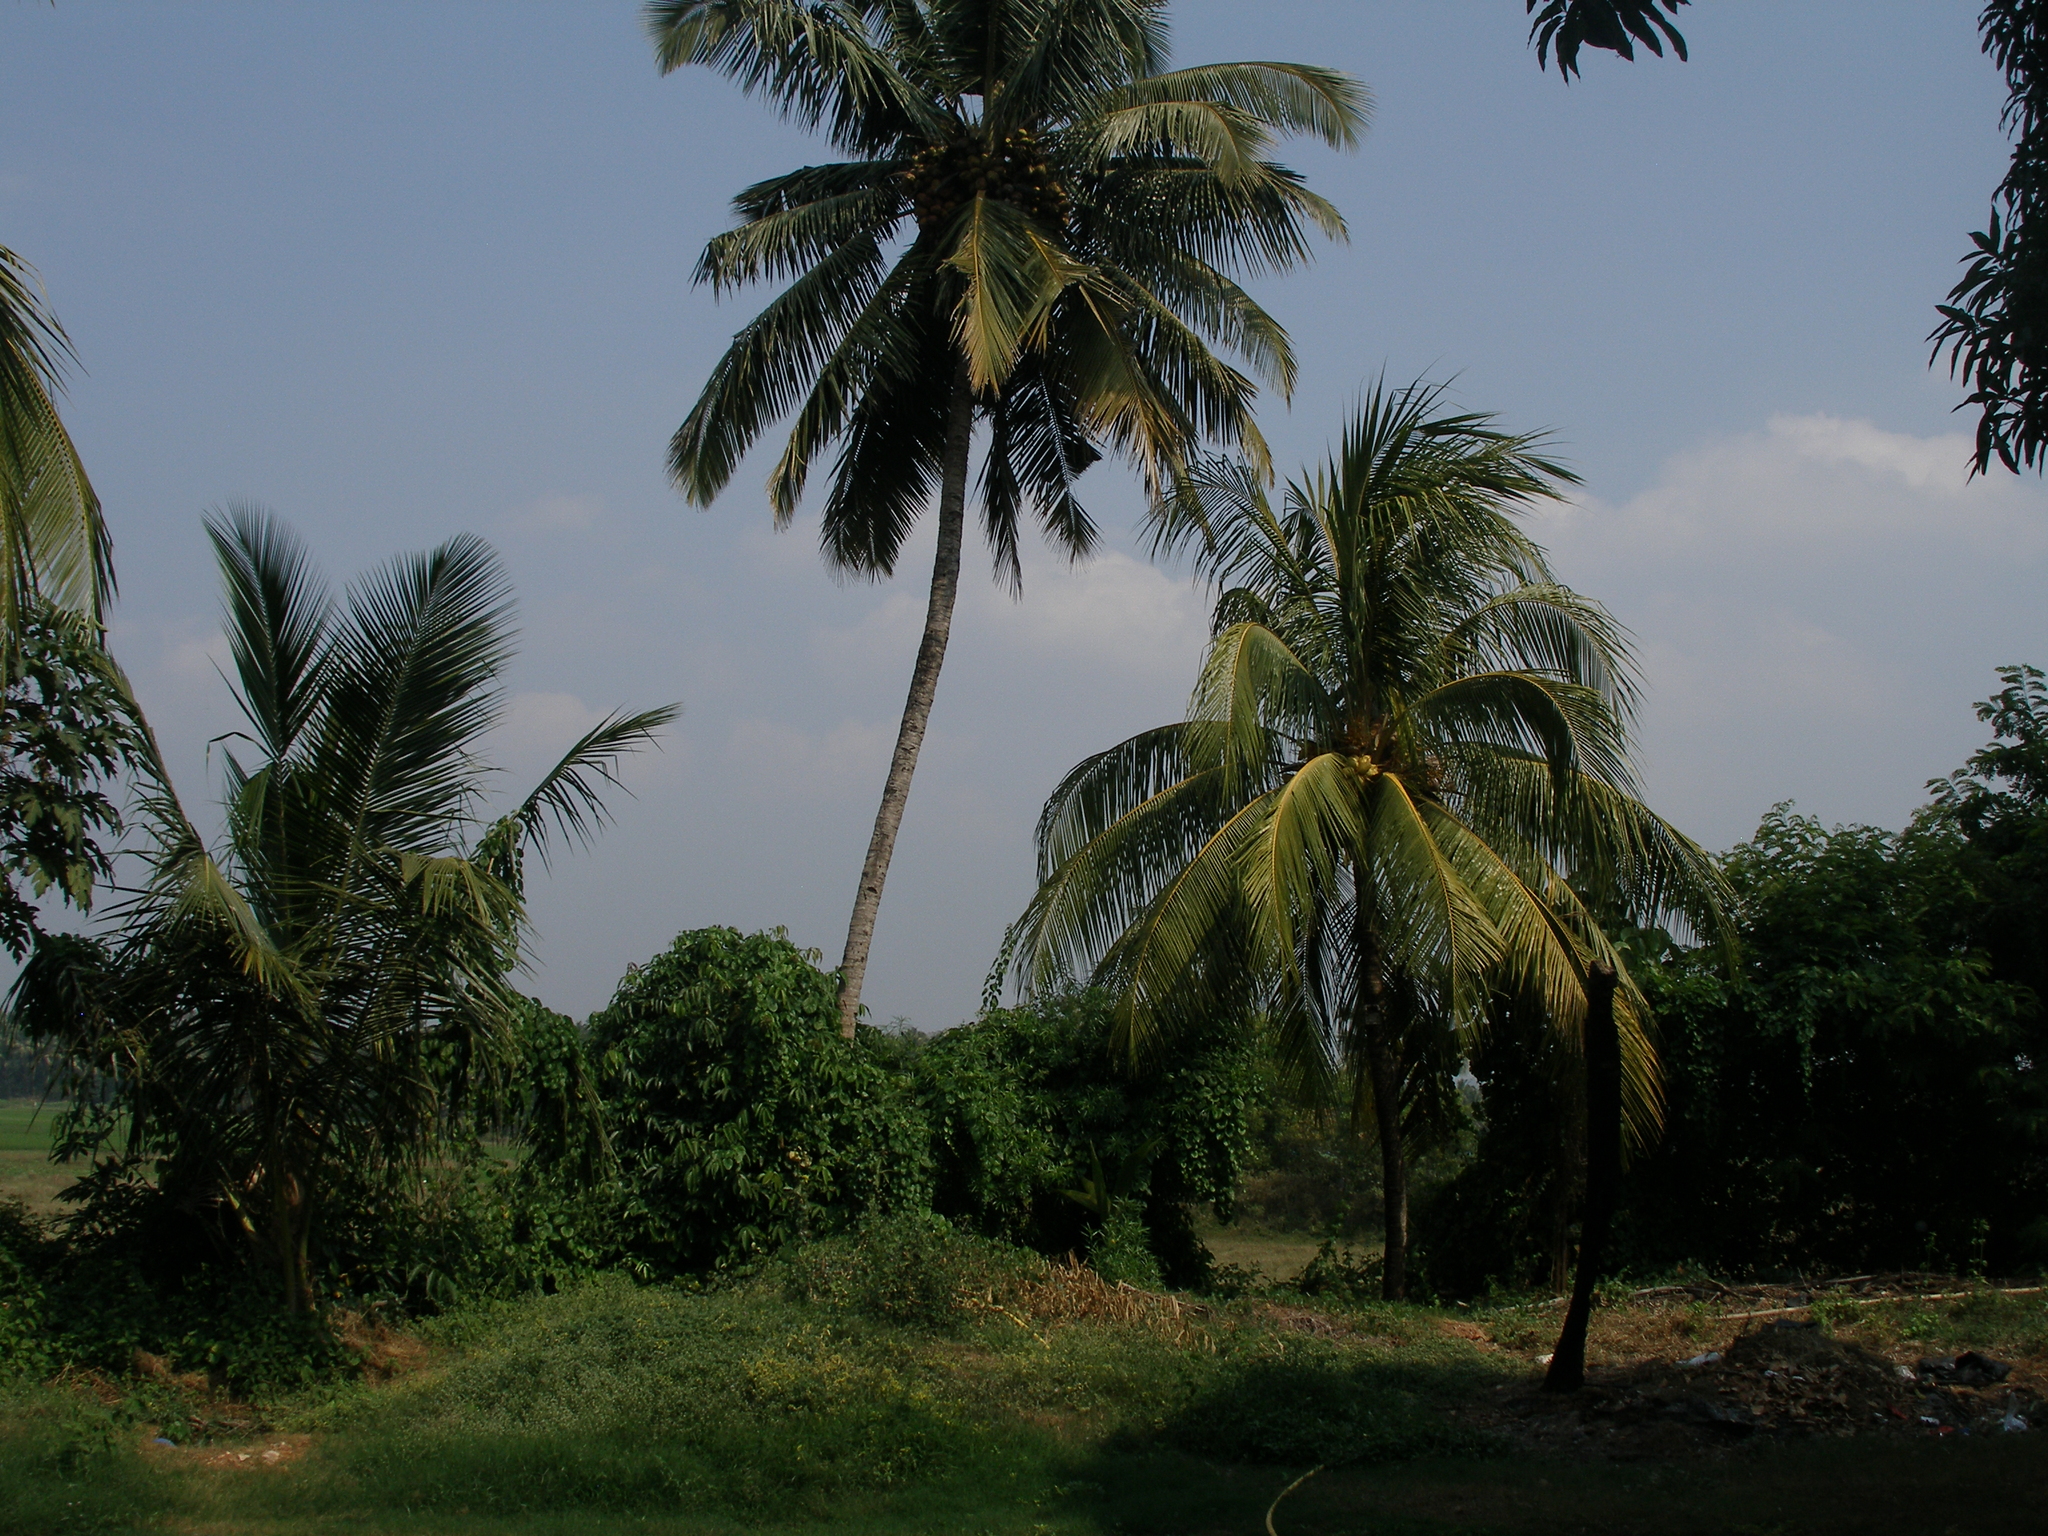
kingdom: Plantae
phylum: Tracheophyta
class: Liliopsida
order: Arecales
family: Arecaceae
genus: Cocos
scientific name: Cocos nucifera
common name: Coconut palm
